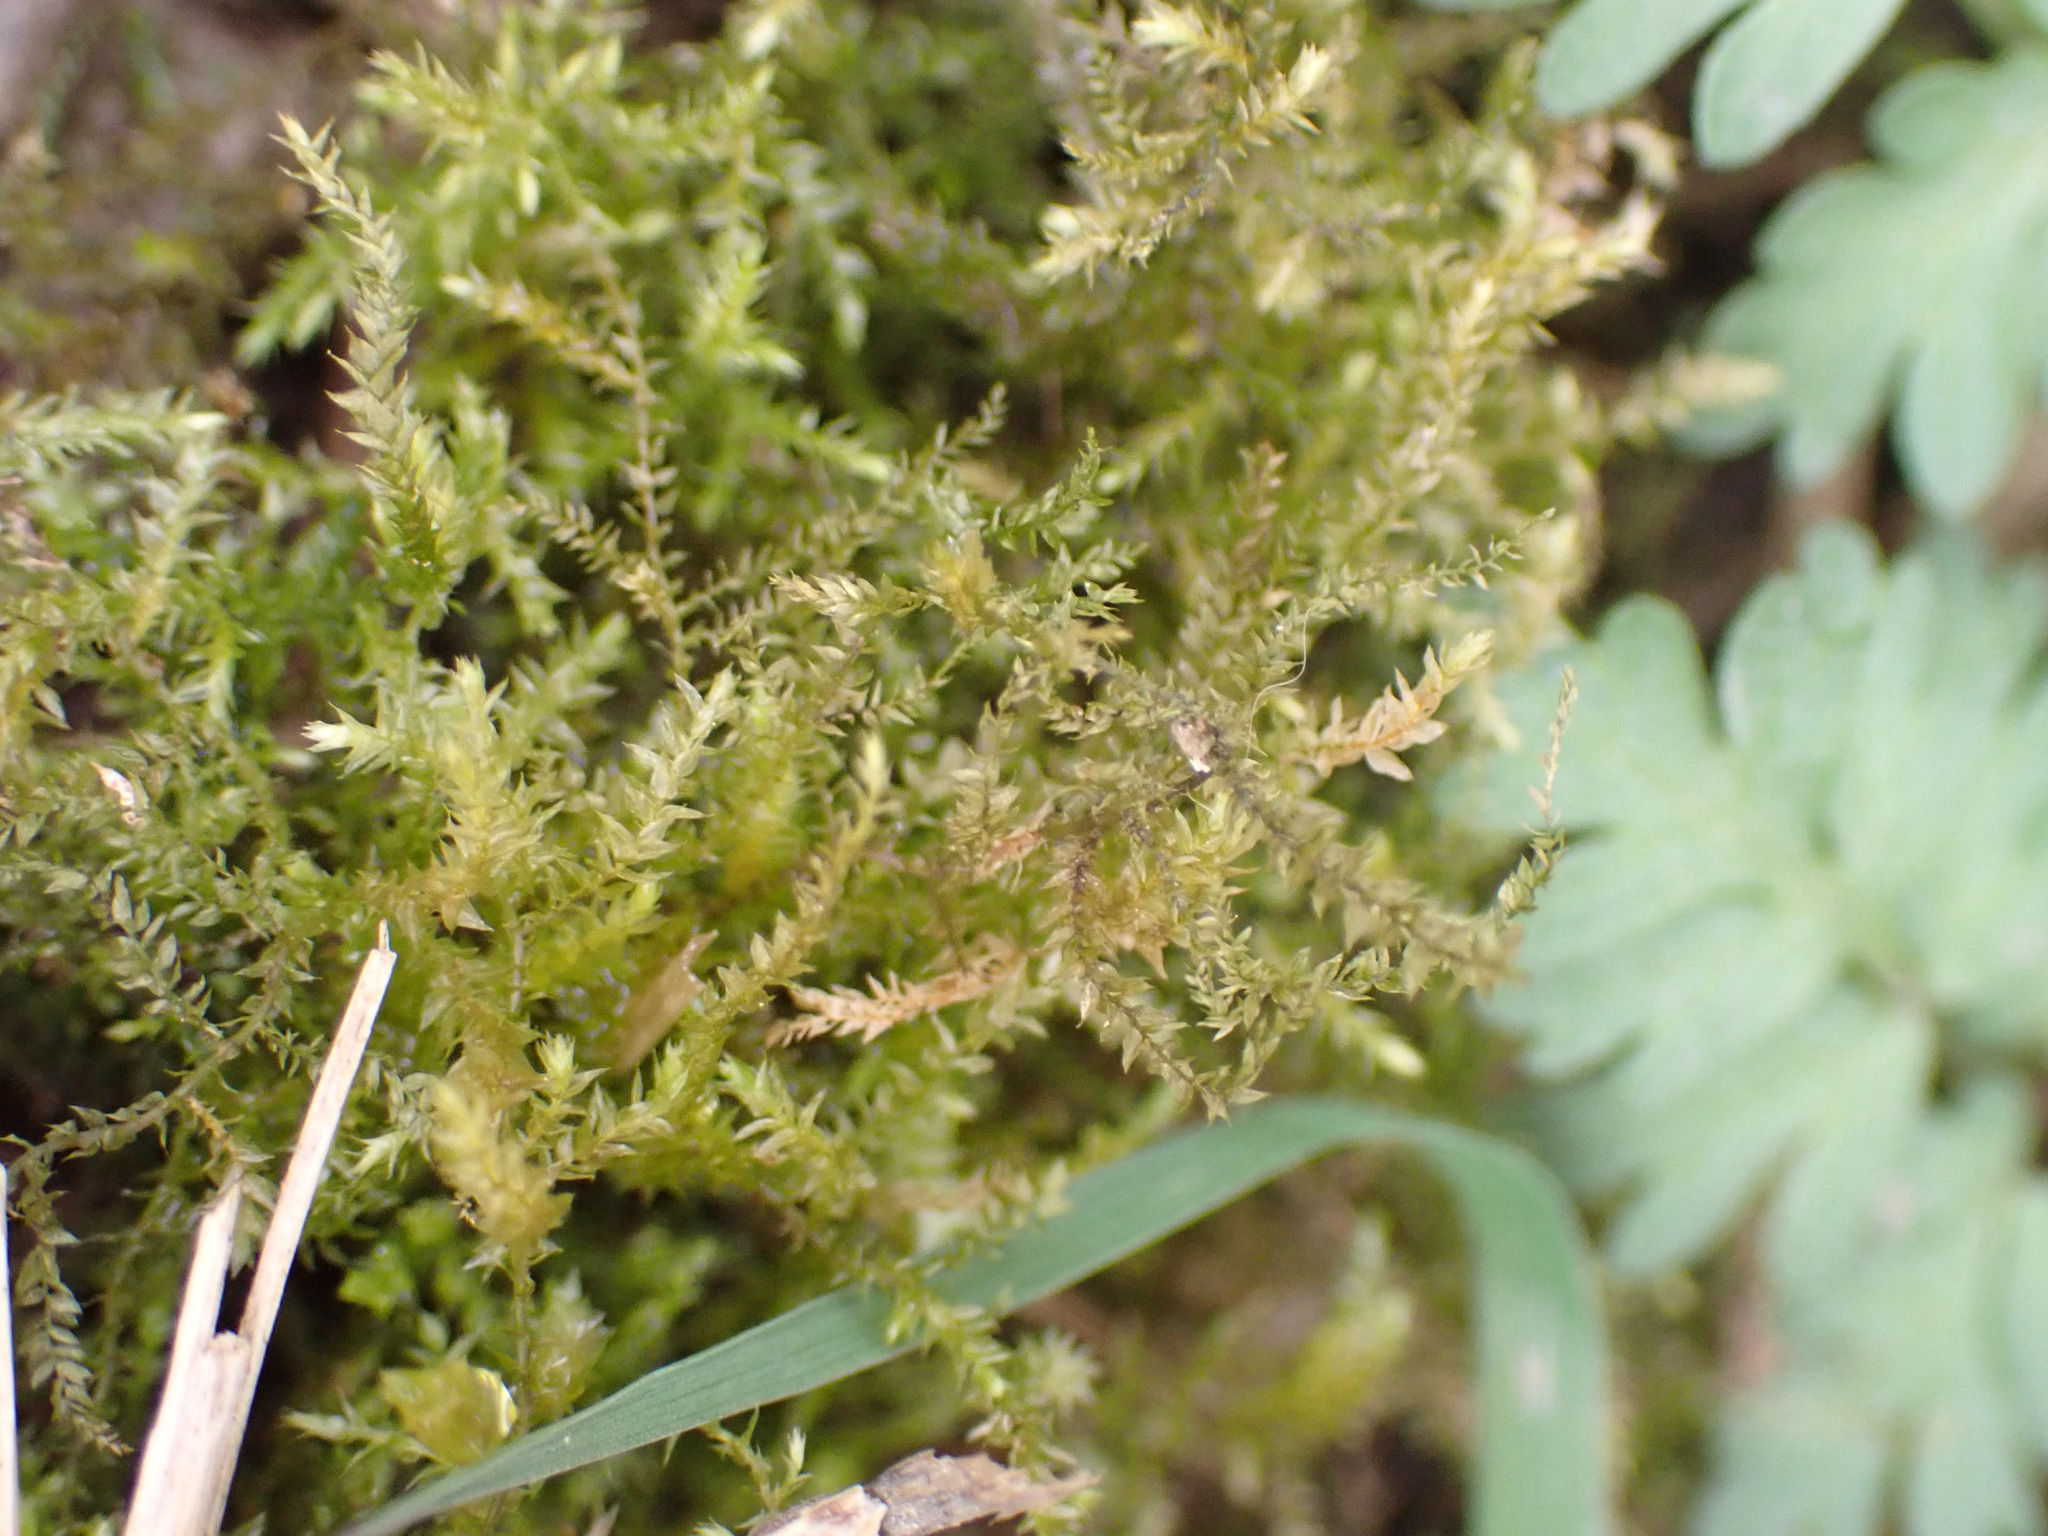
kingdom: Plantae
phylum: Bryophyta
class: Bryopsida
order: Hypnales
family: Brachytheciaceae
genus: Oxyrrhynchium
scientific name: Oxyrrhynchium hians
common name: Spreading beaked moss
